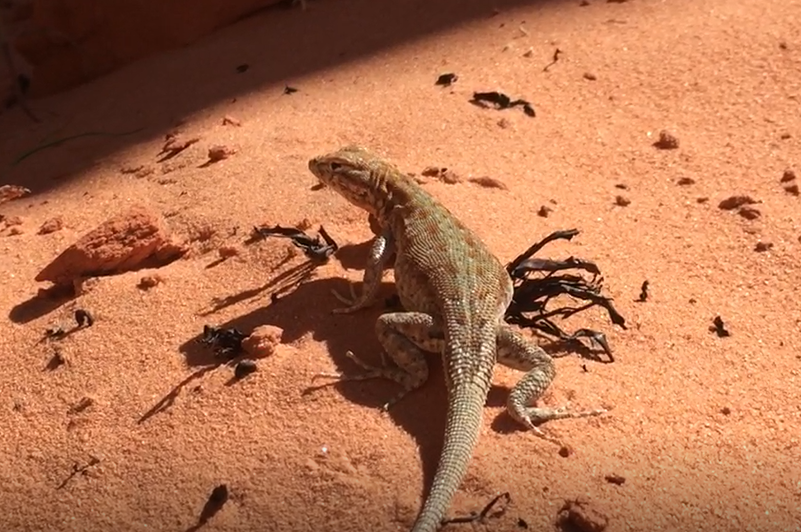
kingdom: Animalia
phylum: Chordata
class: Squamata
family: Phrynosomatidae
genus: Uta
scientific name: Uta stansburiana
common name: Side-blotched lizard
